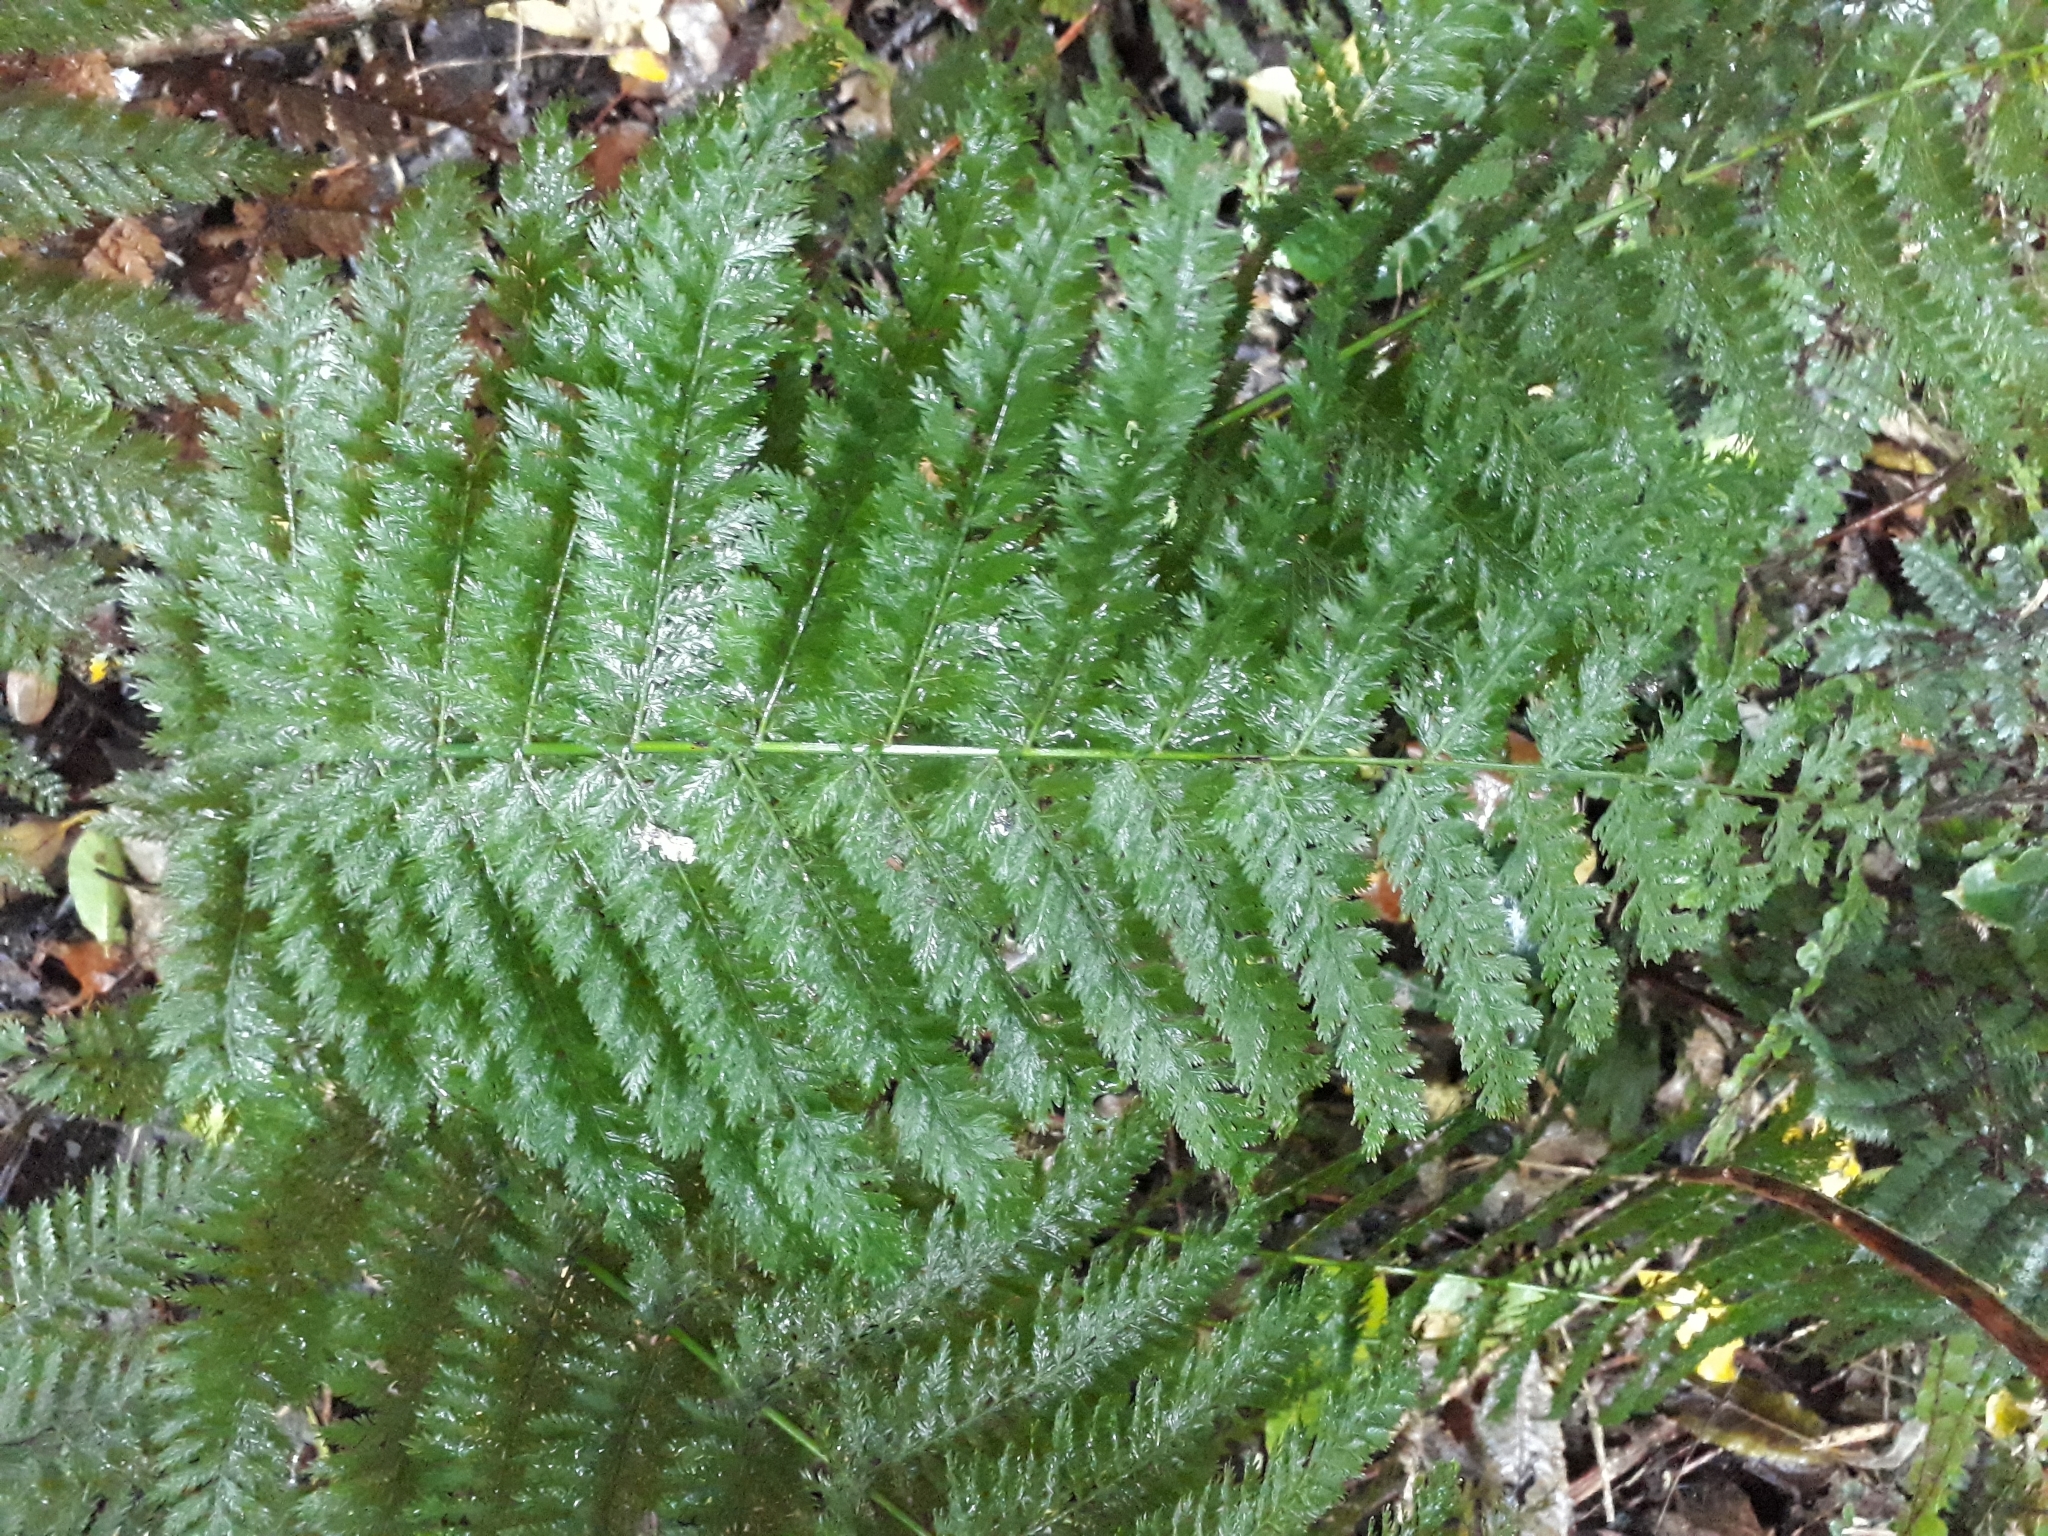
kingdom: Plantae
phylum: Tracheophyta
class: Polypodiopsida
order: Osmundales
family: Osmundaceae
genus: Leptopteris
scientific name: Leptopteris hymenophylloides
